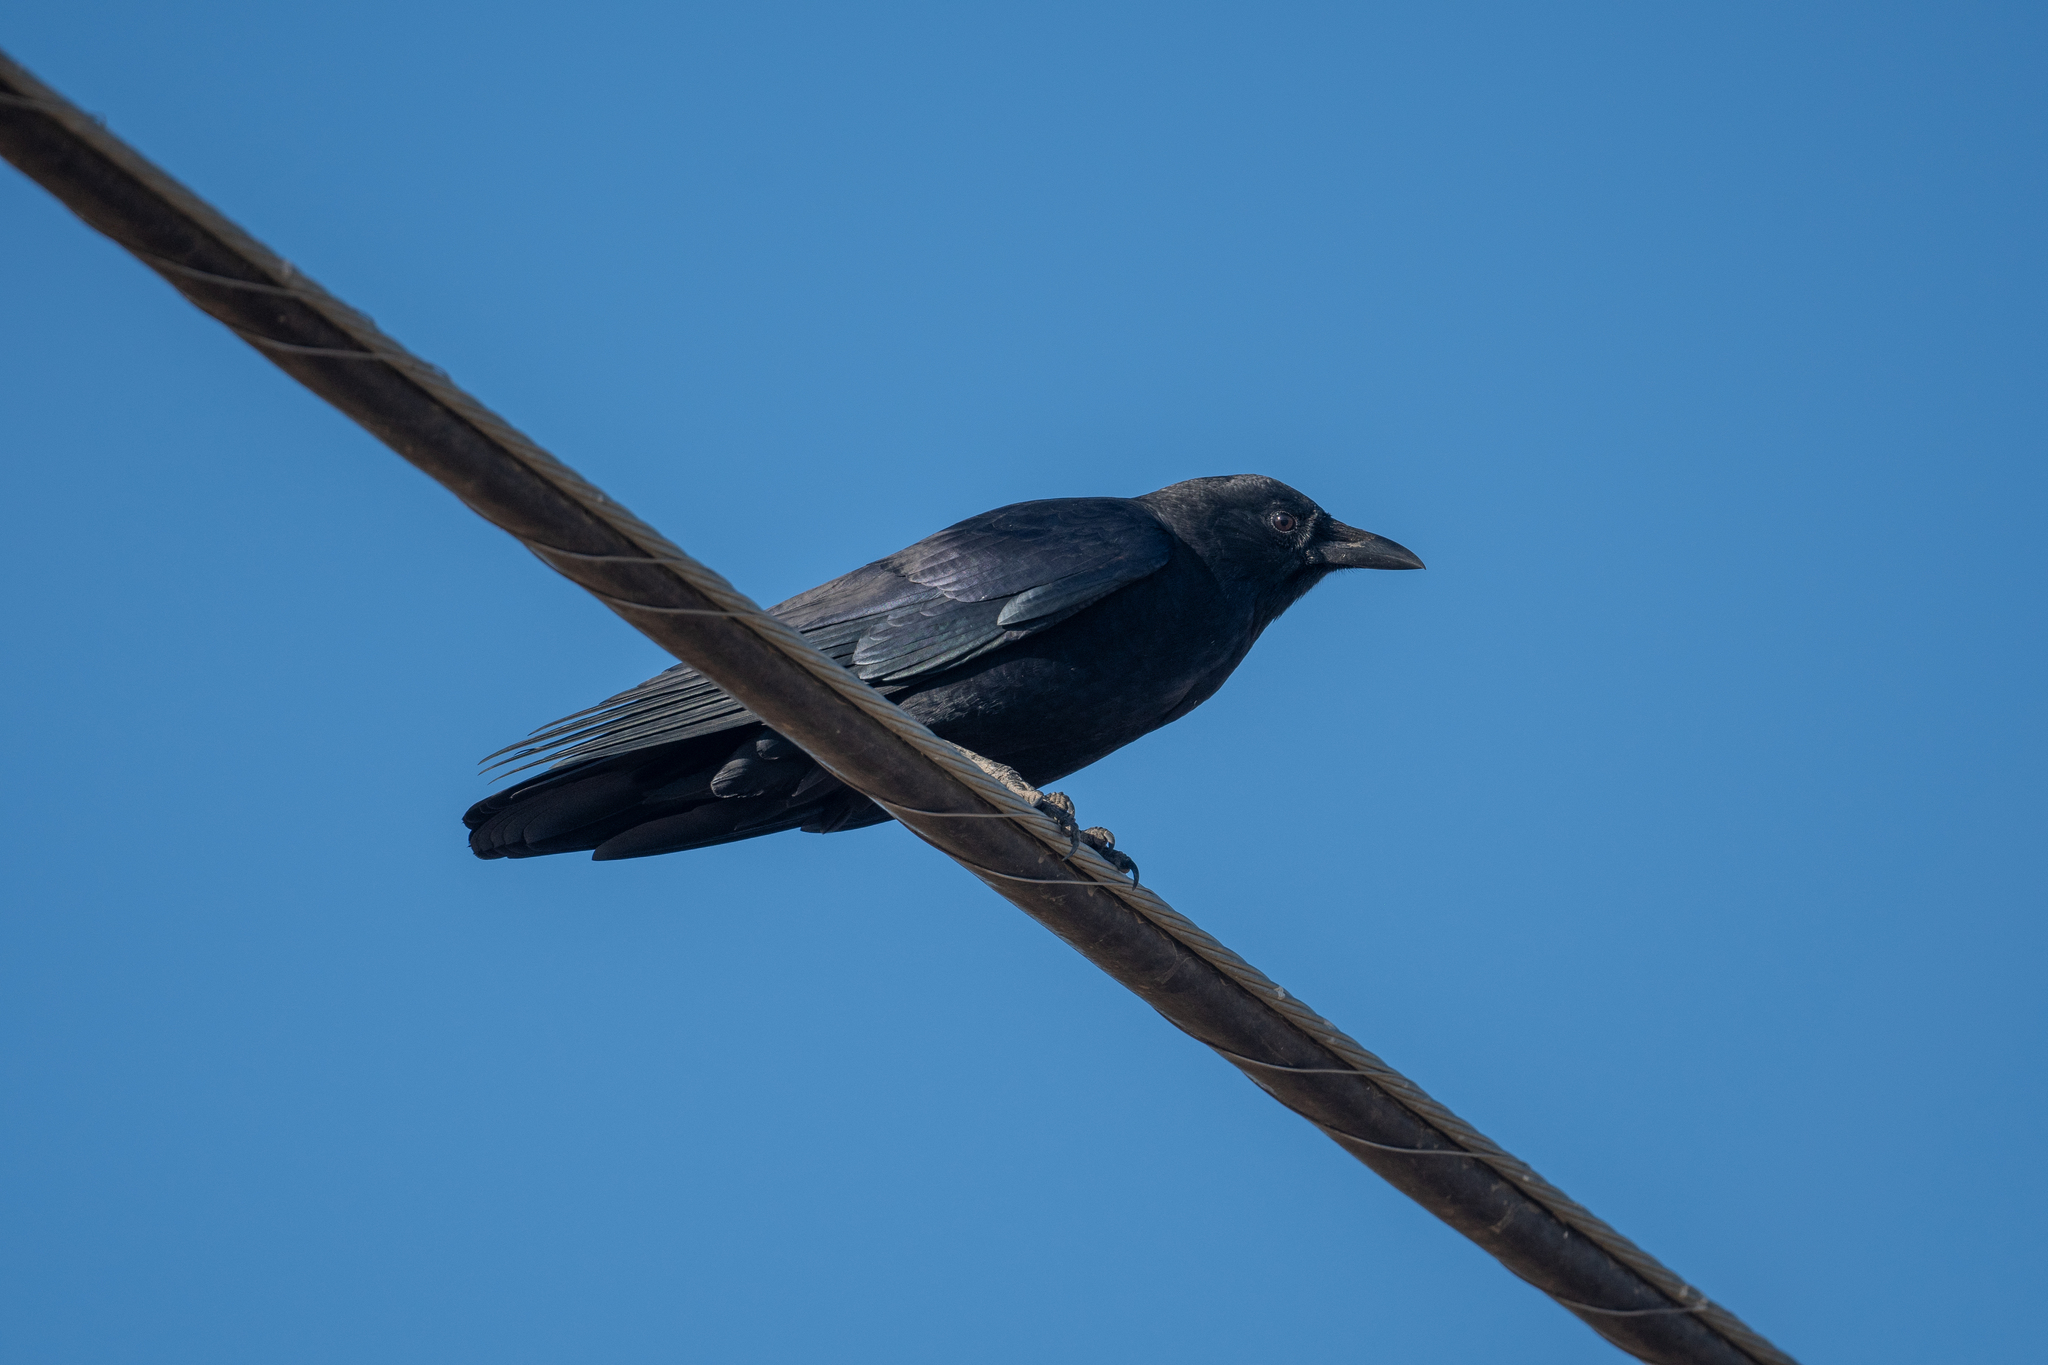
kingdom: Animalia
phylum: Chordata
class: Aves
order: Passeriformes
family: Corvidae
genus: Corvus
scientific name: Corvus brachyrhynchos
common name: American crow
